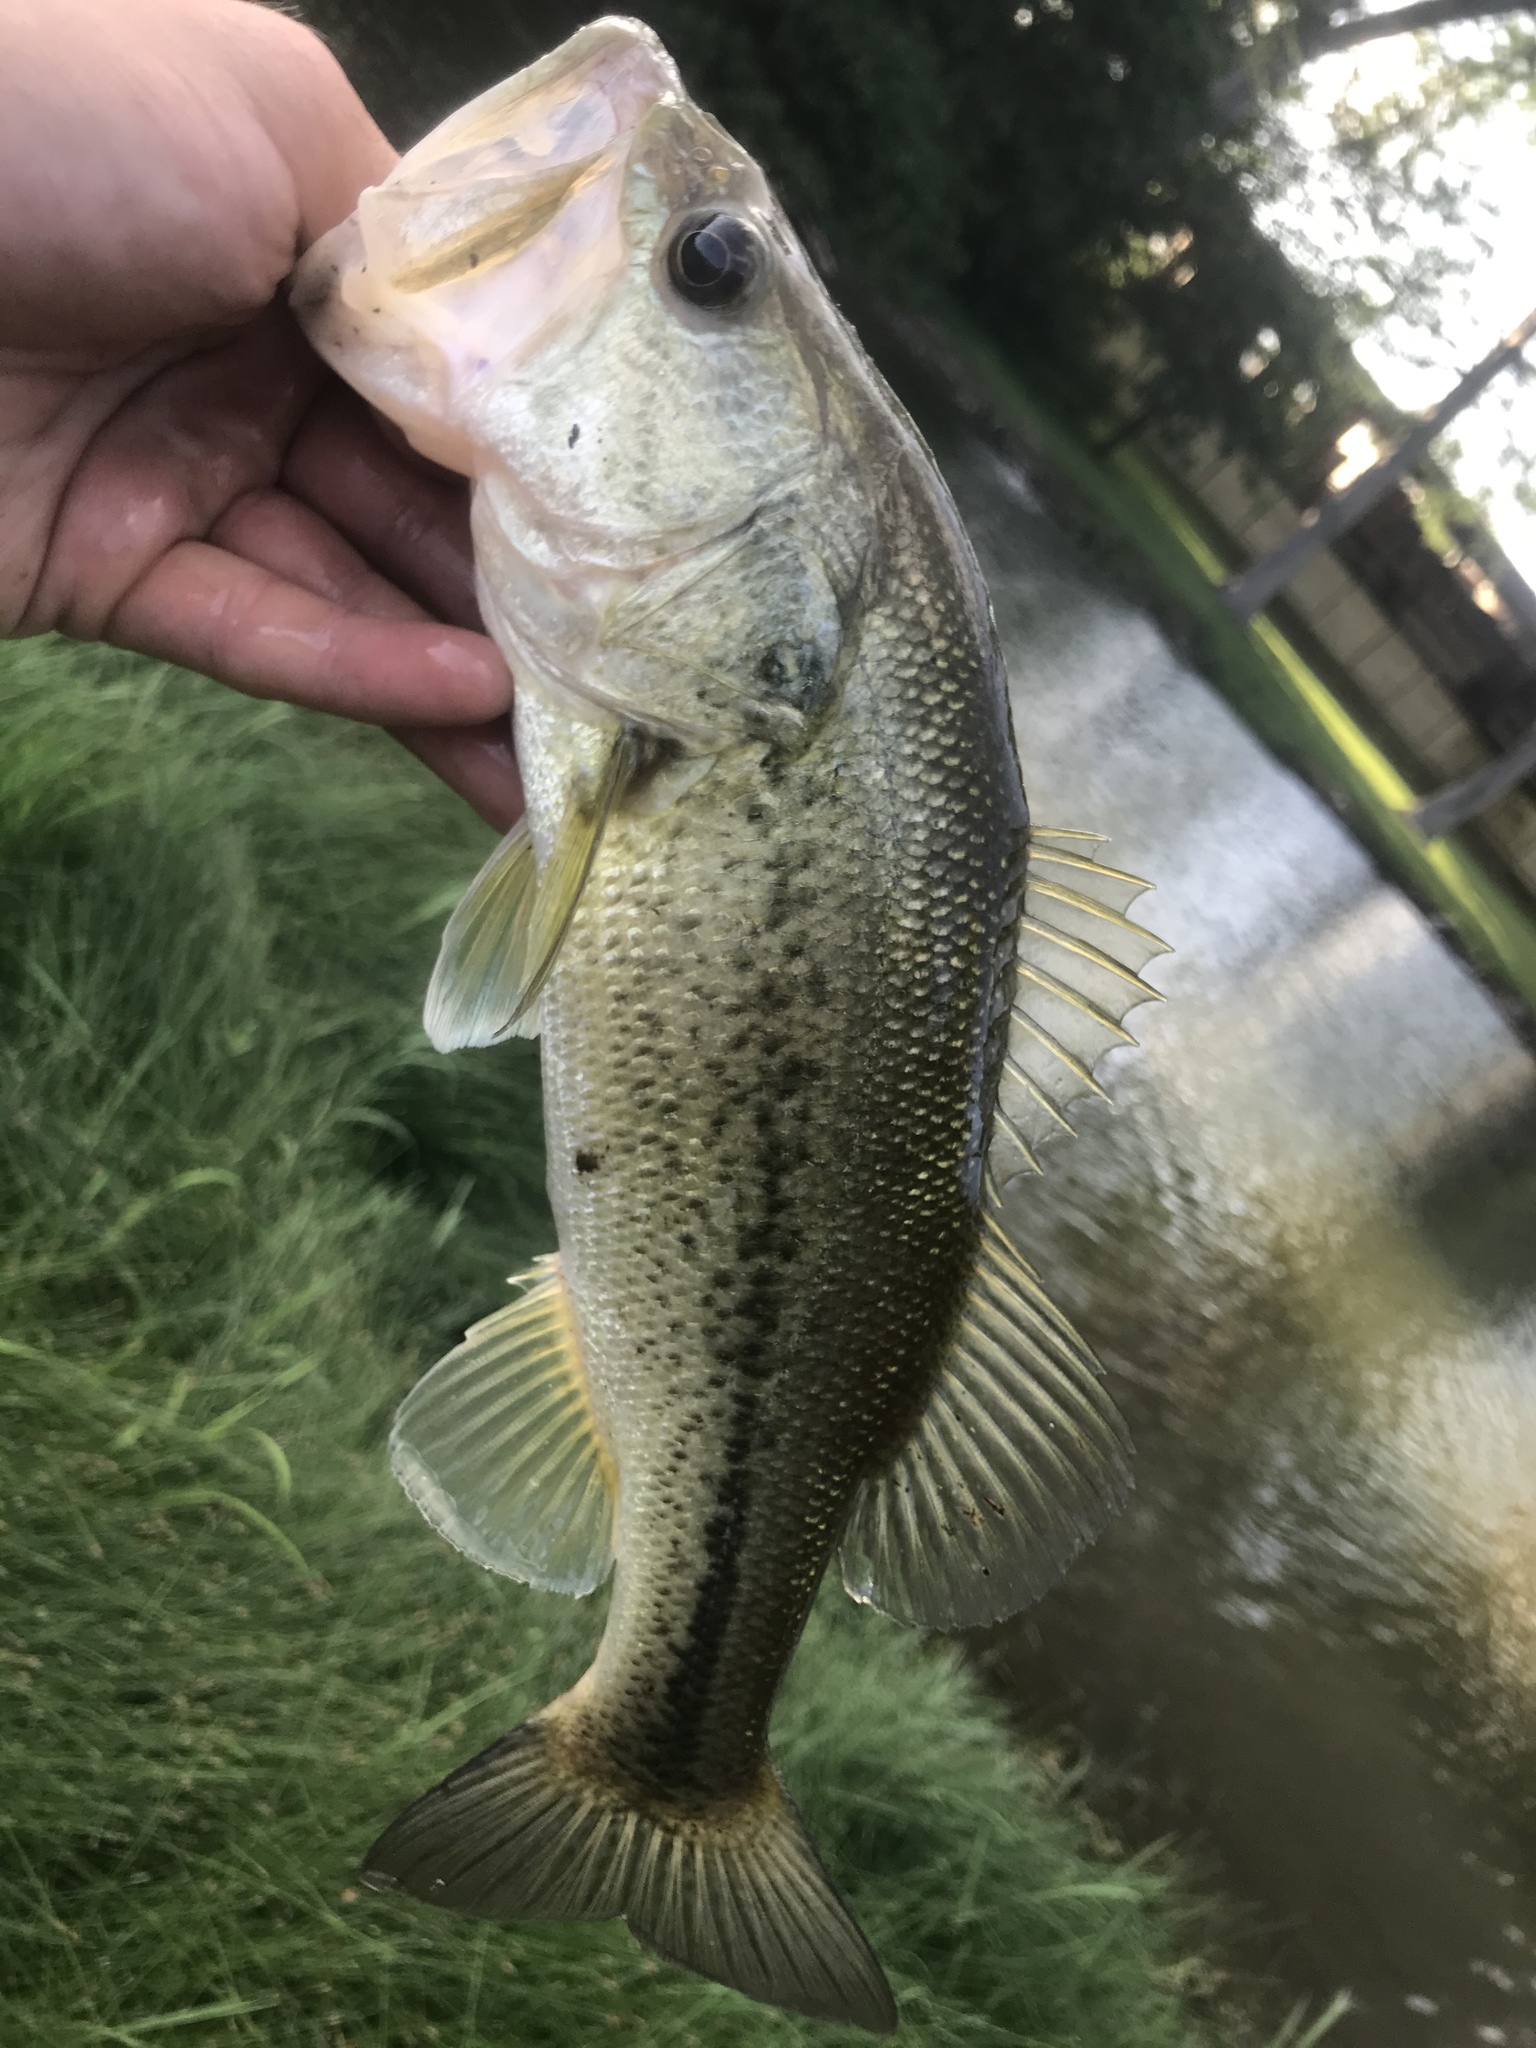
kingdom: Animalia
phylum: Chordata
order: Perciformes
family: Centrarchidae
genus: Micropterus
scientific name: Micropterus
